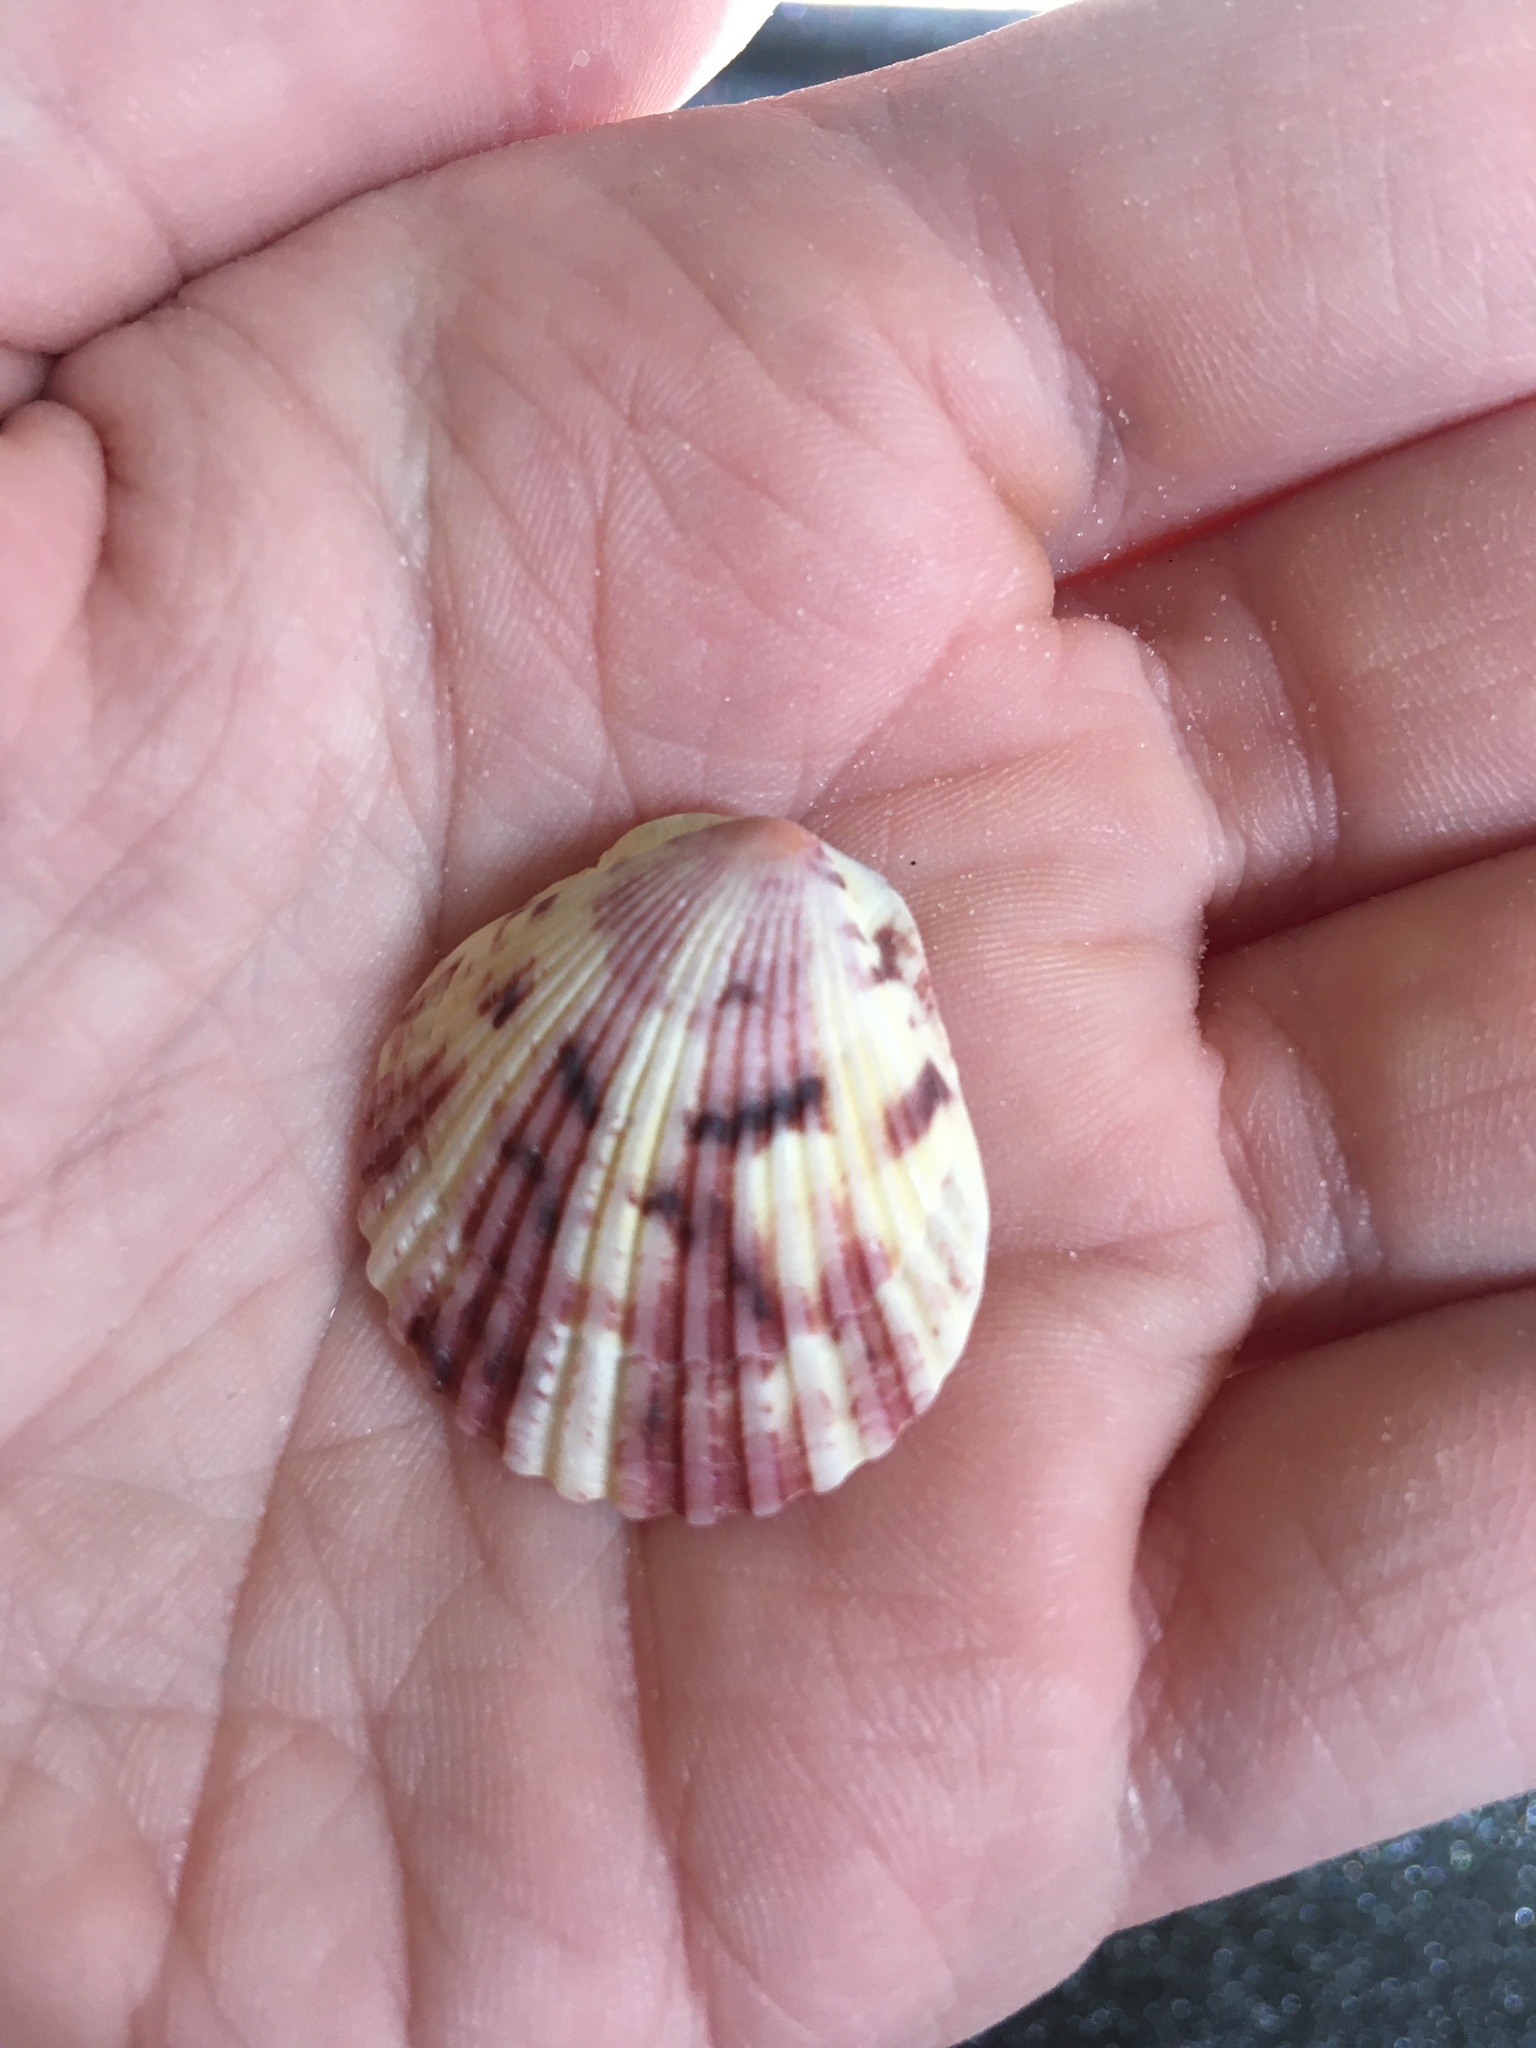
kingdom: Animalia
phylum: Mollusca
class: Bivalvia
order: Pectinida
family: Pectinidae
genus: Argopecten
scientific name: Argopecten gibbus
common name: Atlantic calico scallop
